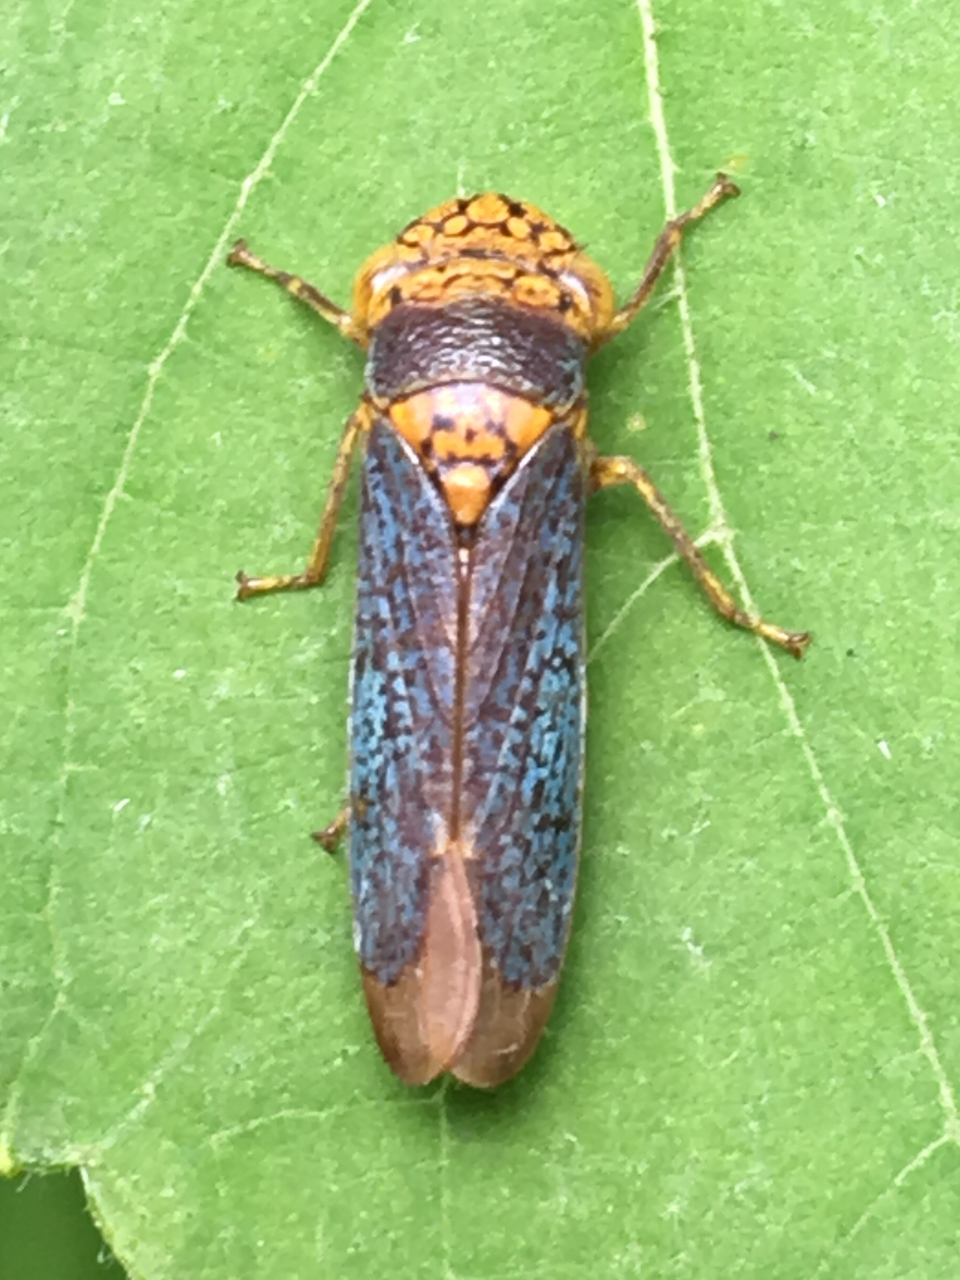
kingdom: Animalia
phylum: Arthropoda
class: Insecta
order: Hemiptera
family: Cicadellidae
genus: Oncometopia
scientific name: Oncometopia orbona
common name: Broad-headed sharpshooter
